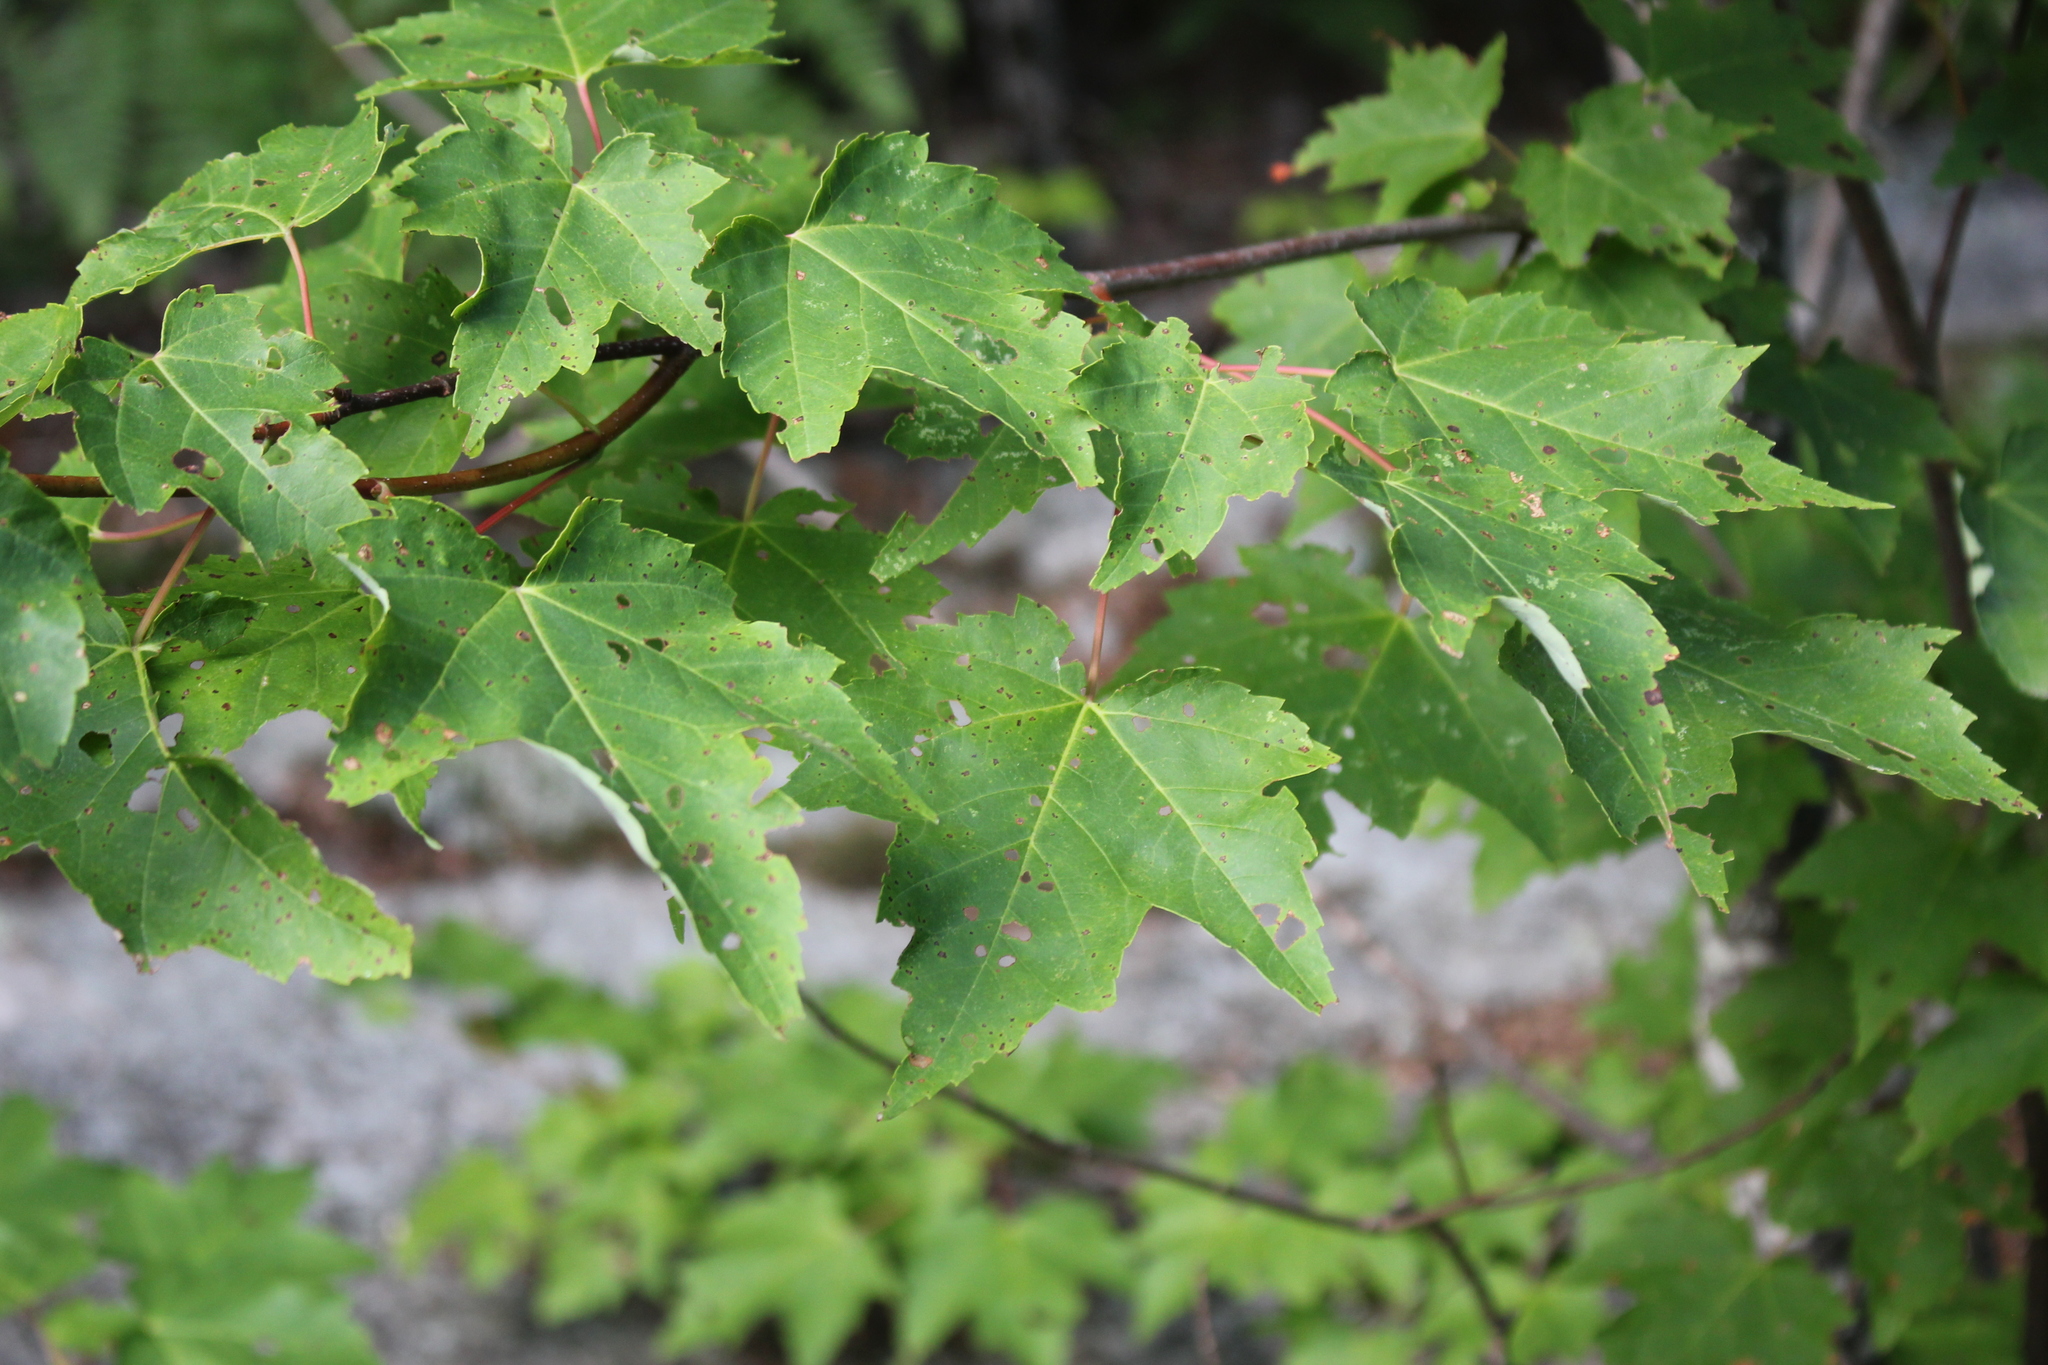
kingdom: Plantae
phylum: Tracheophyta
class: Magnoliopsida
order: Sapindales
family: Sapindaceae
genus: Acer
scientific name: Acer rubrum
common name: Red maple
